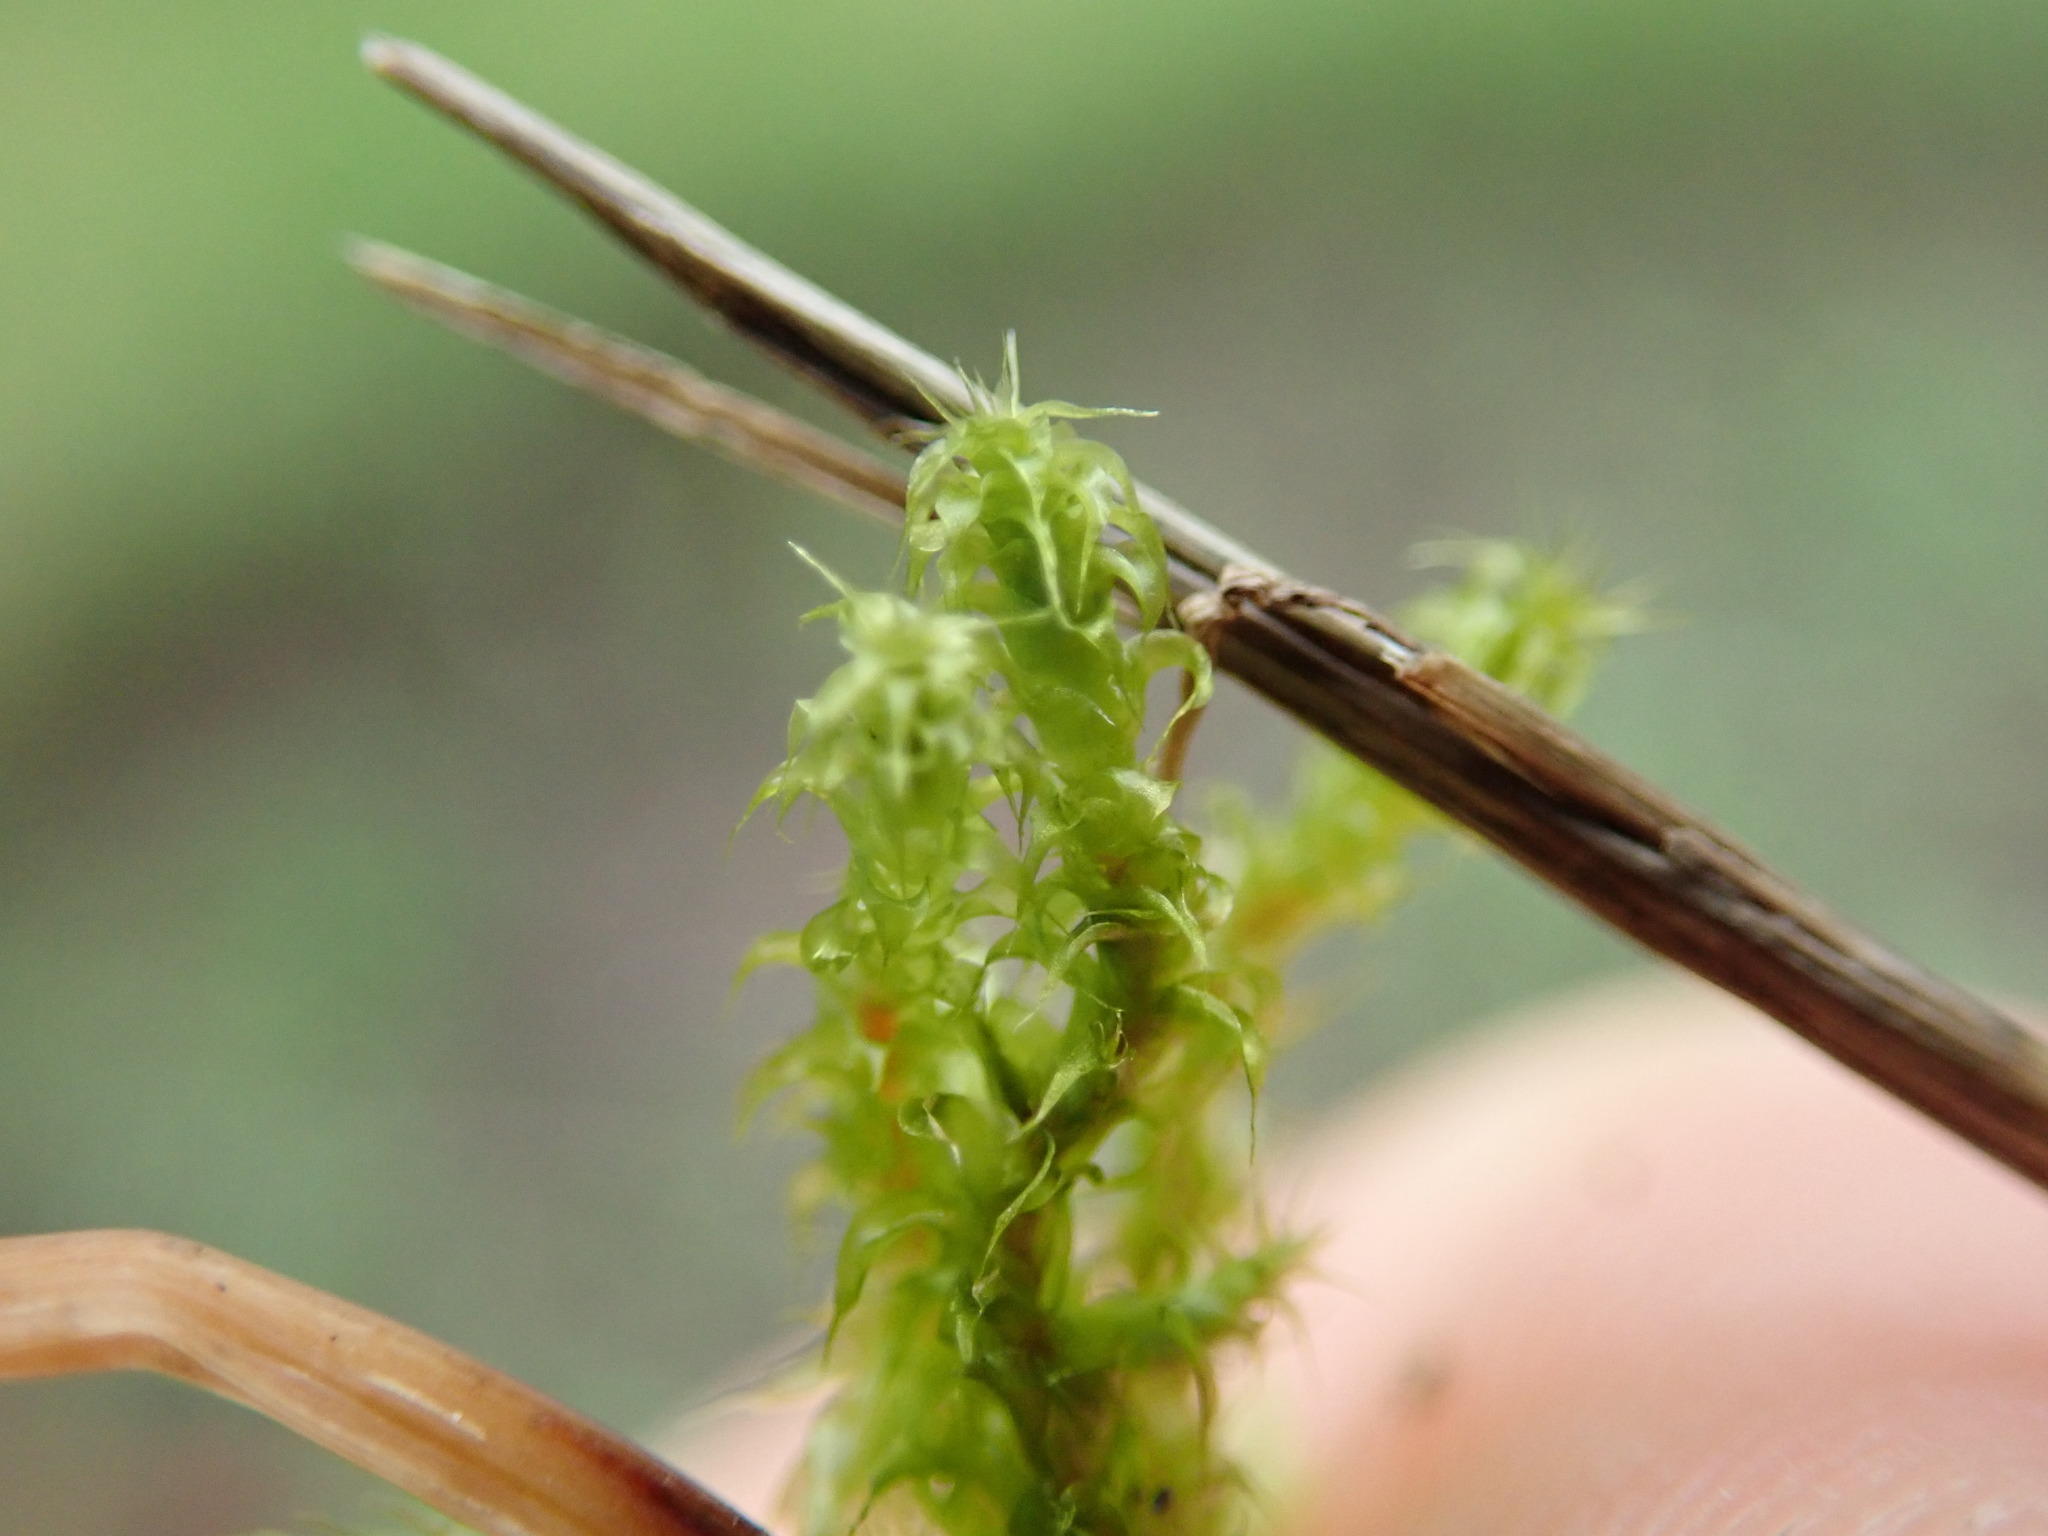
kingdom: Plantae
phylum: Bryophyta
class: Bryopsida
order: Hypnales
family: Hylocomiaceae
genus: Rhytidiadelphus
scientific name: Rhytidiadelphus squarrosus
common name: Springy turf-moss
